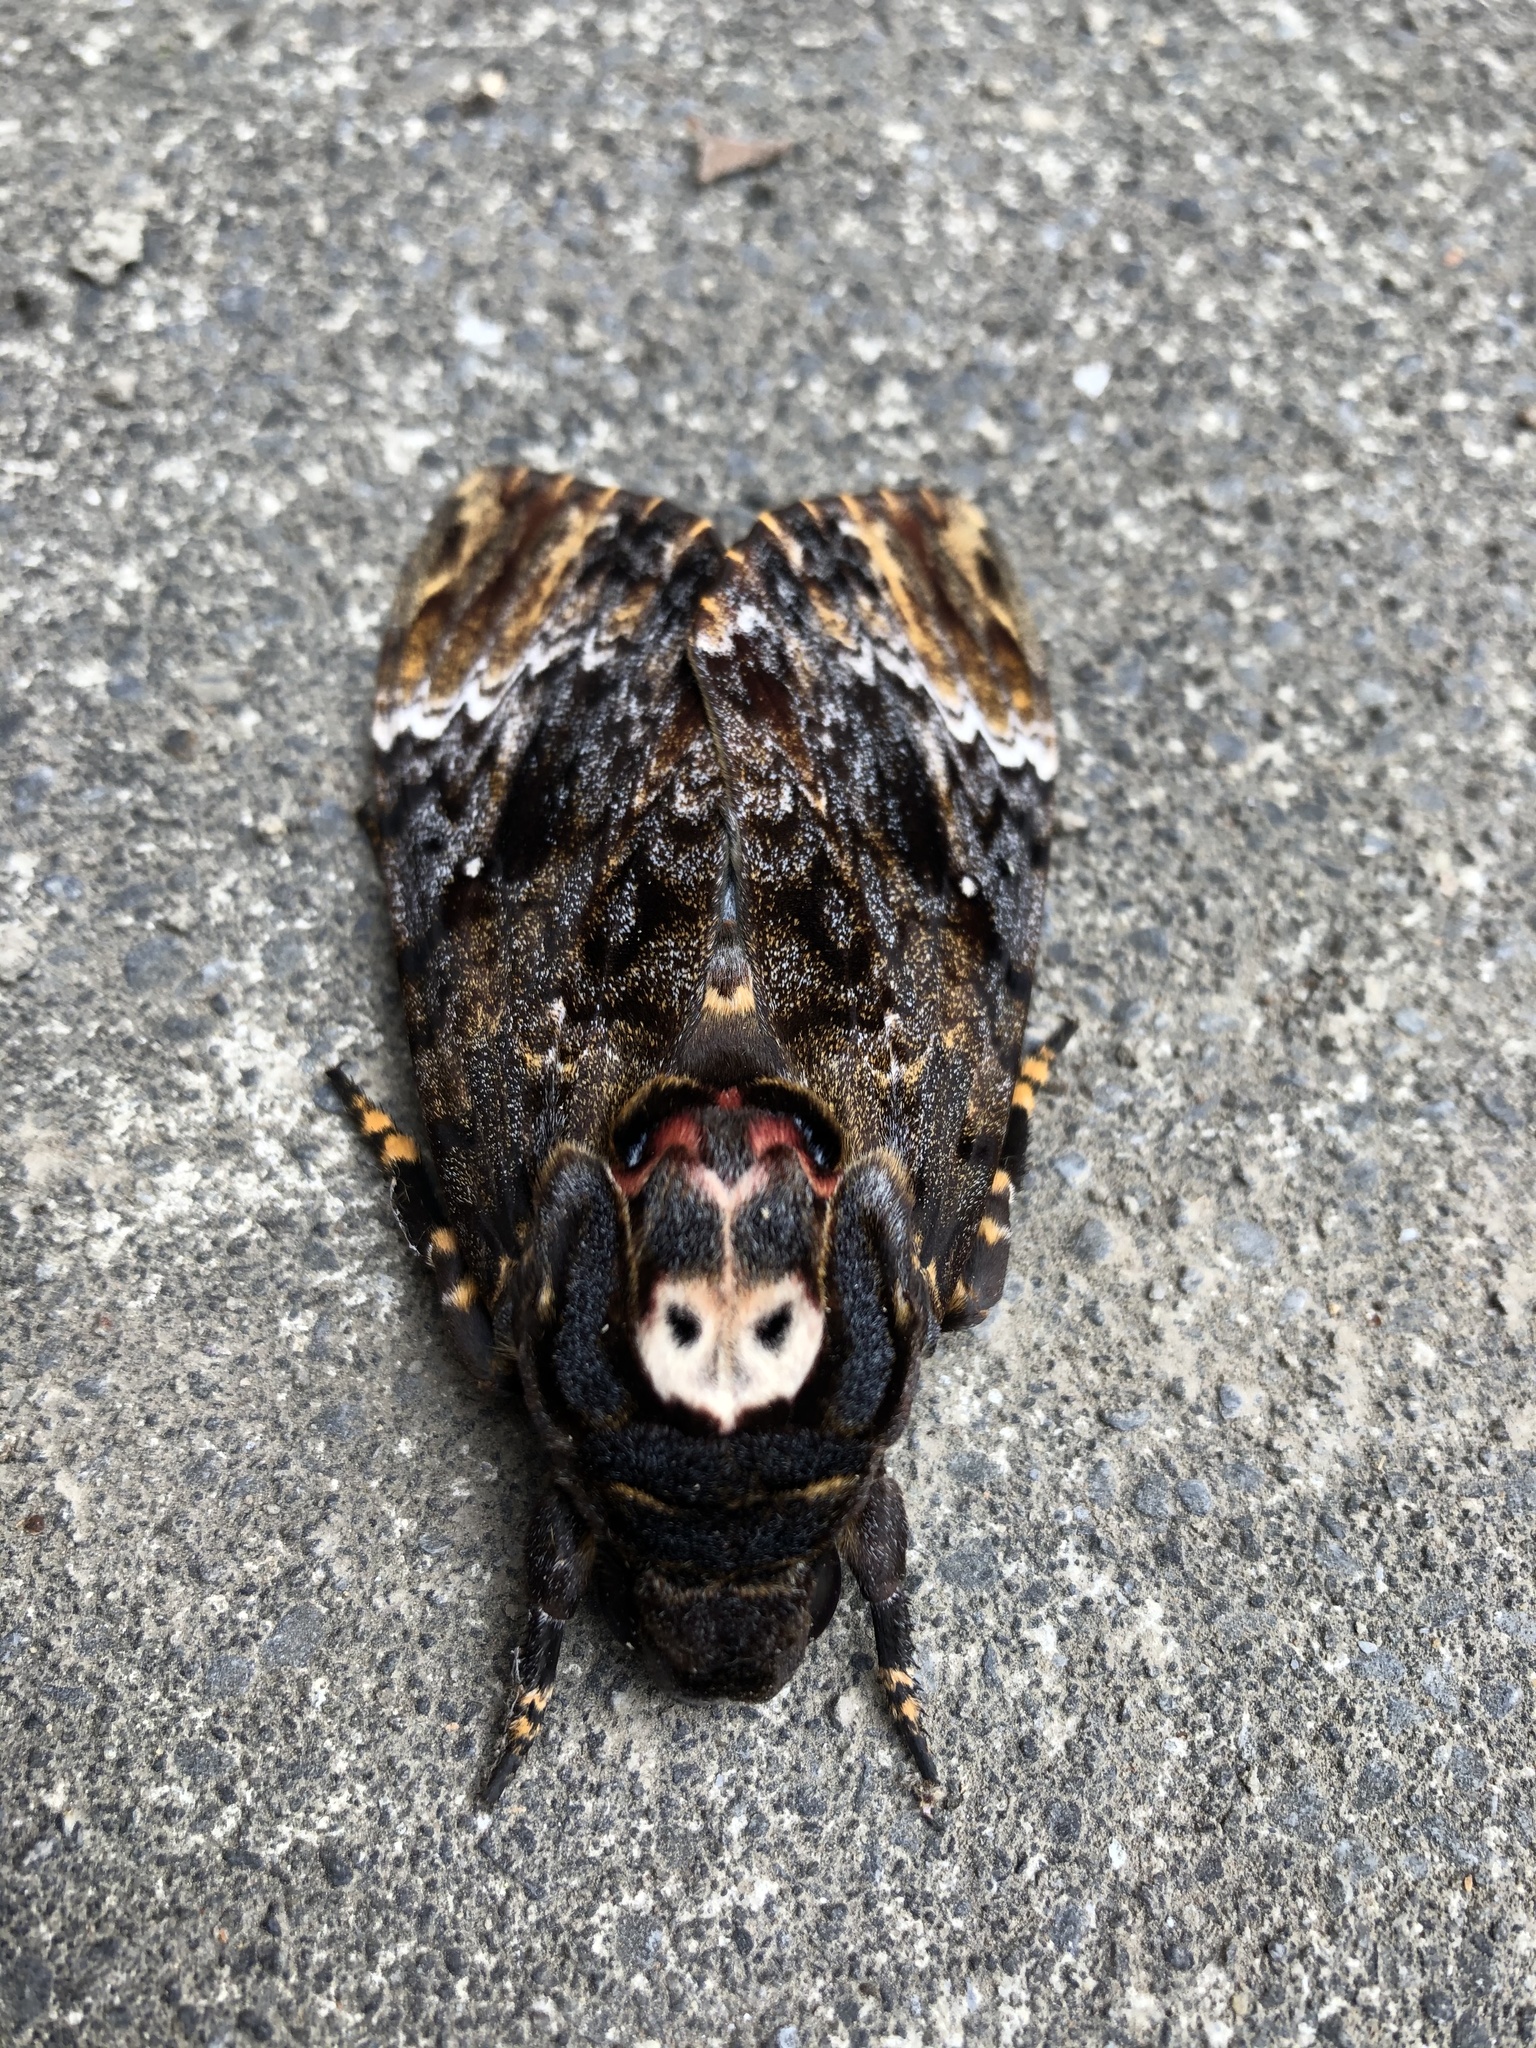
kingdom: Animalia
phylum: Arthropoda
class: Insecta
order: Lepidoptera
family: Sphingidae
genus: Acherontia
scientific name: Acherontia lachesis
